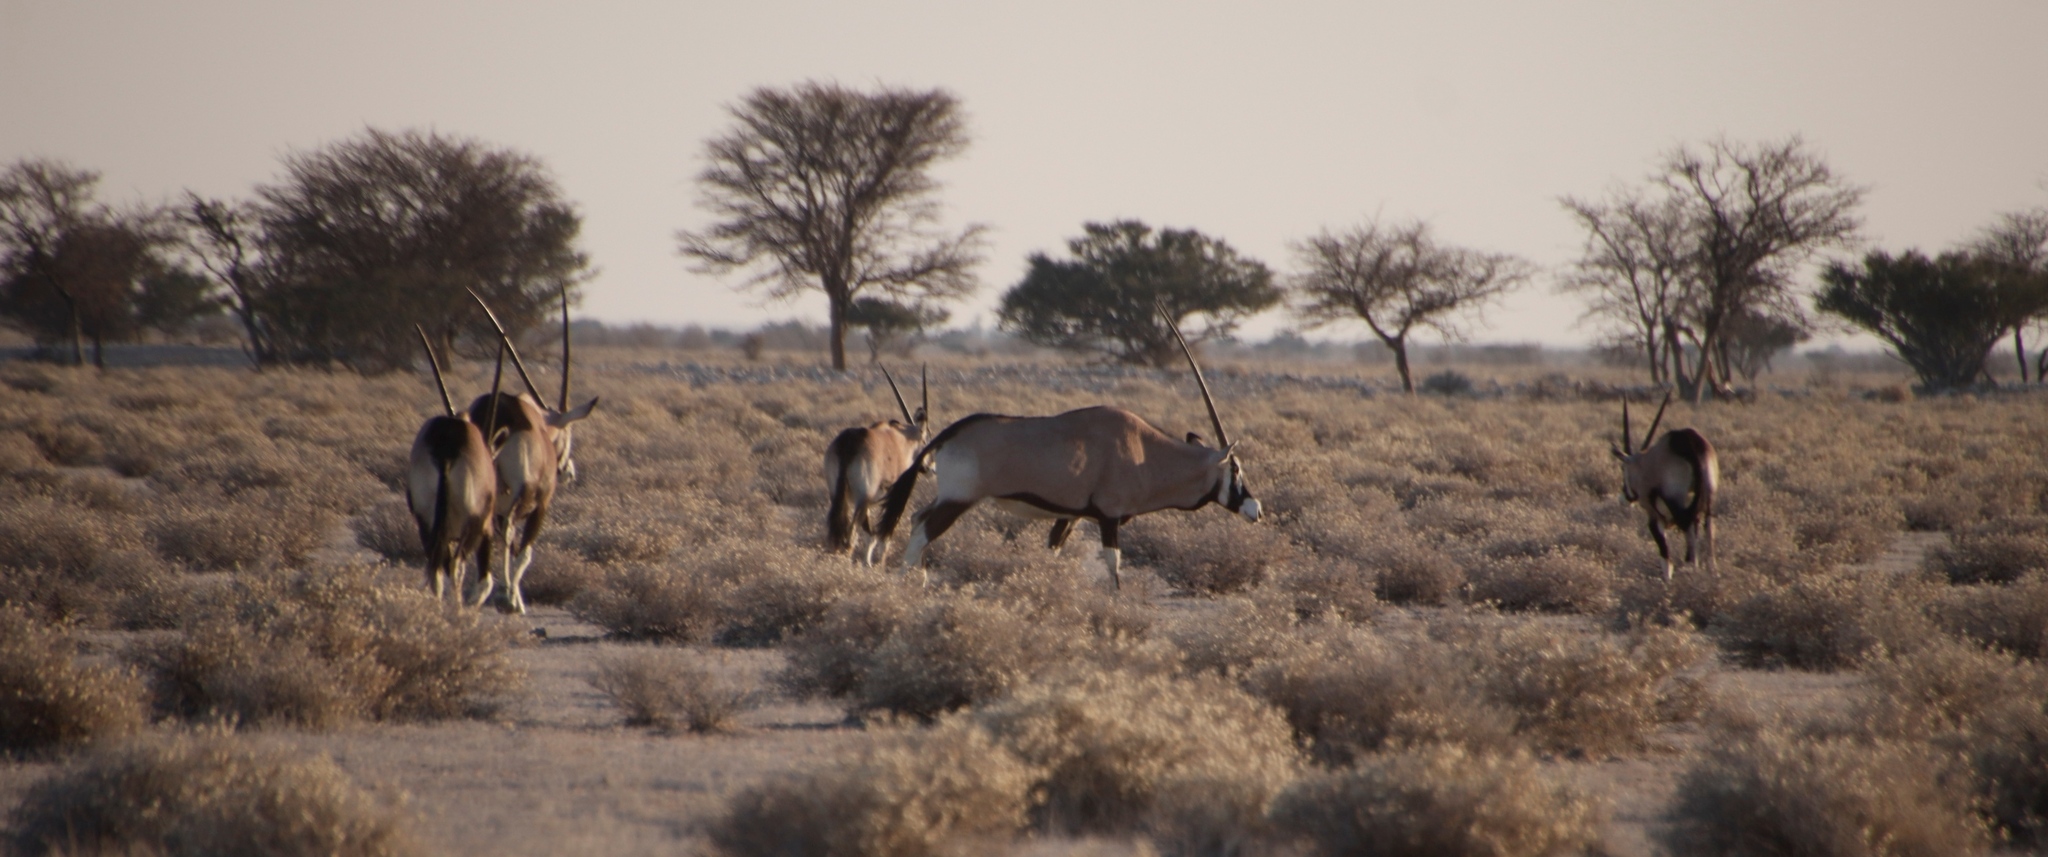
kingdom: Animalia
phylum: Chordata
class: Mammalia
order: Artiodactyla
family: Bovidae
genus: Oryx
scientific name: Oryx gazella
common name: Gemsbok
